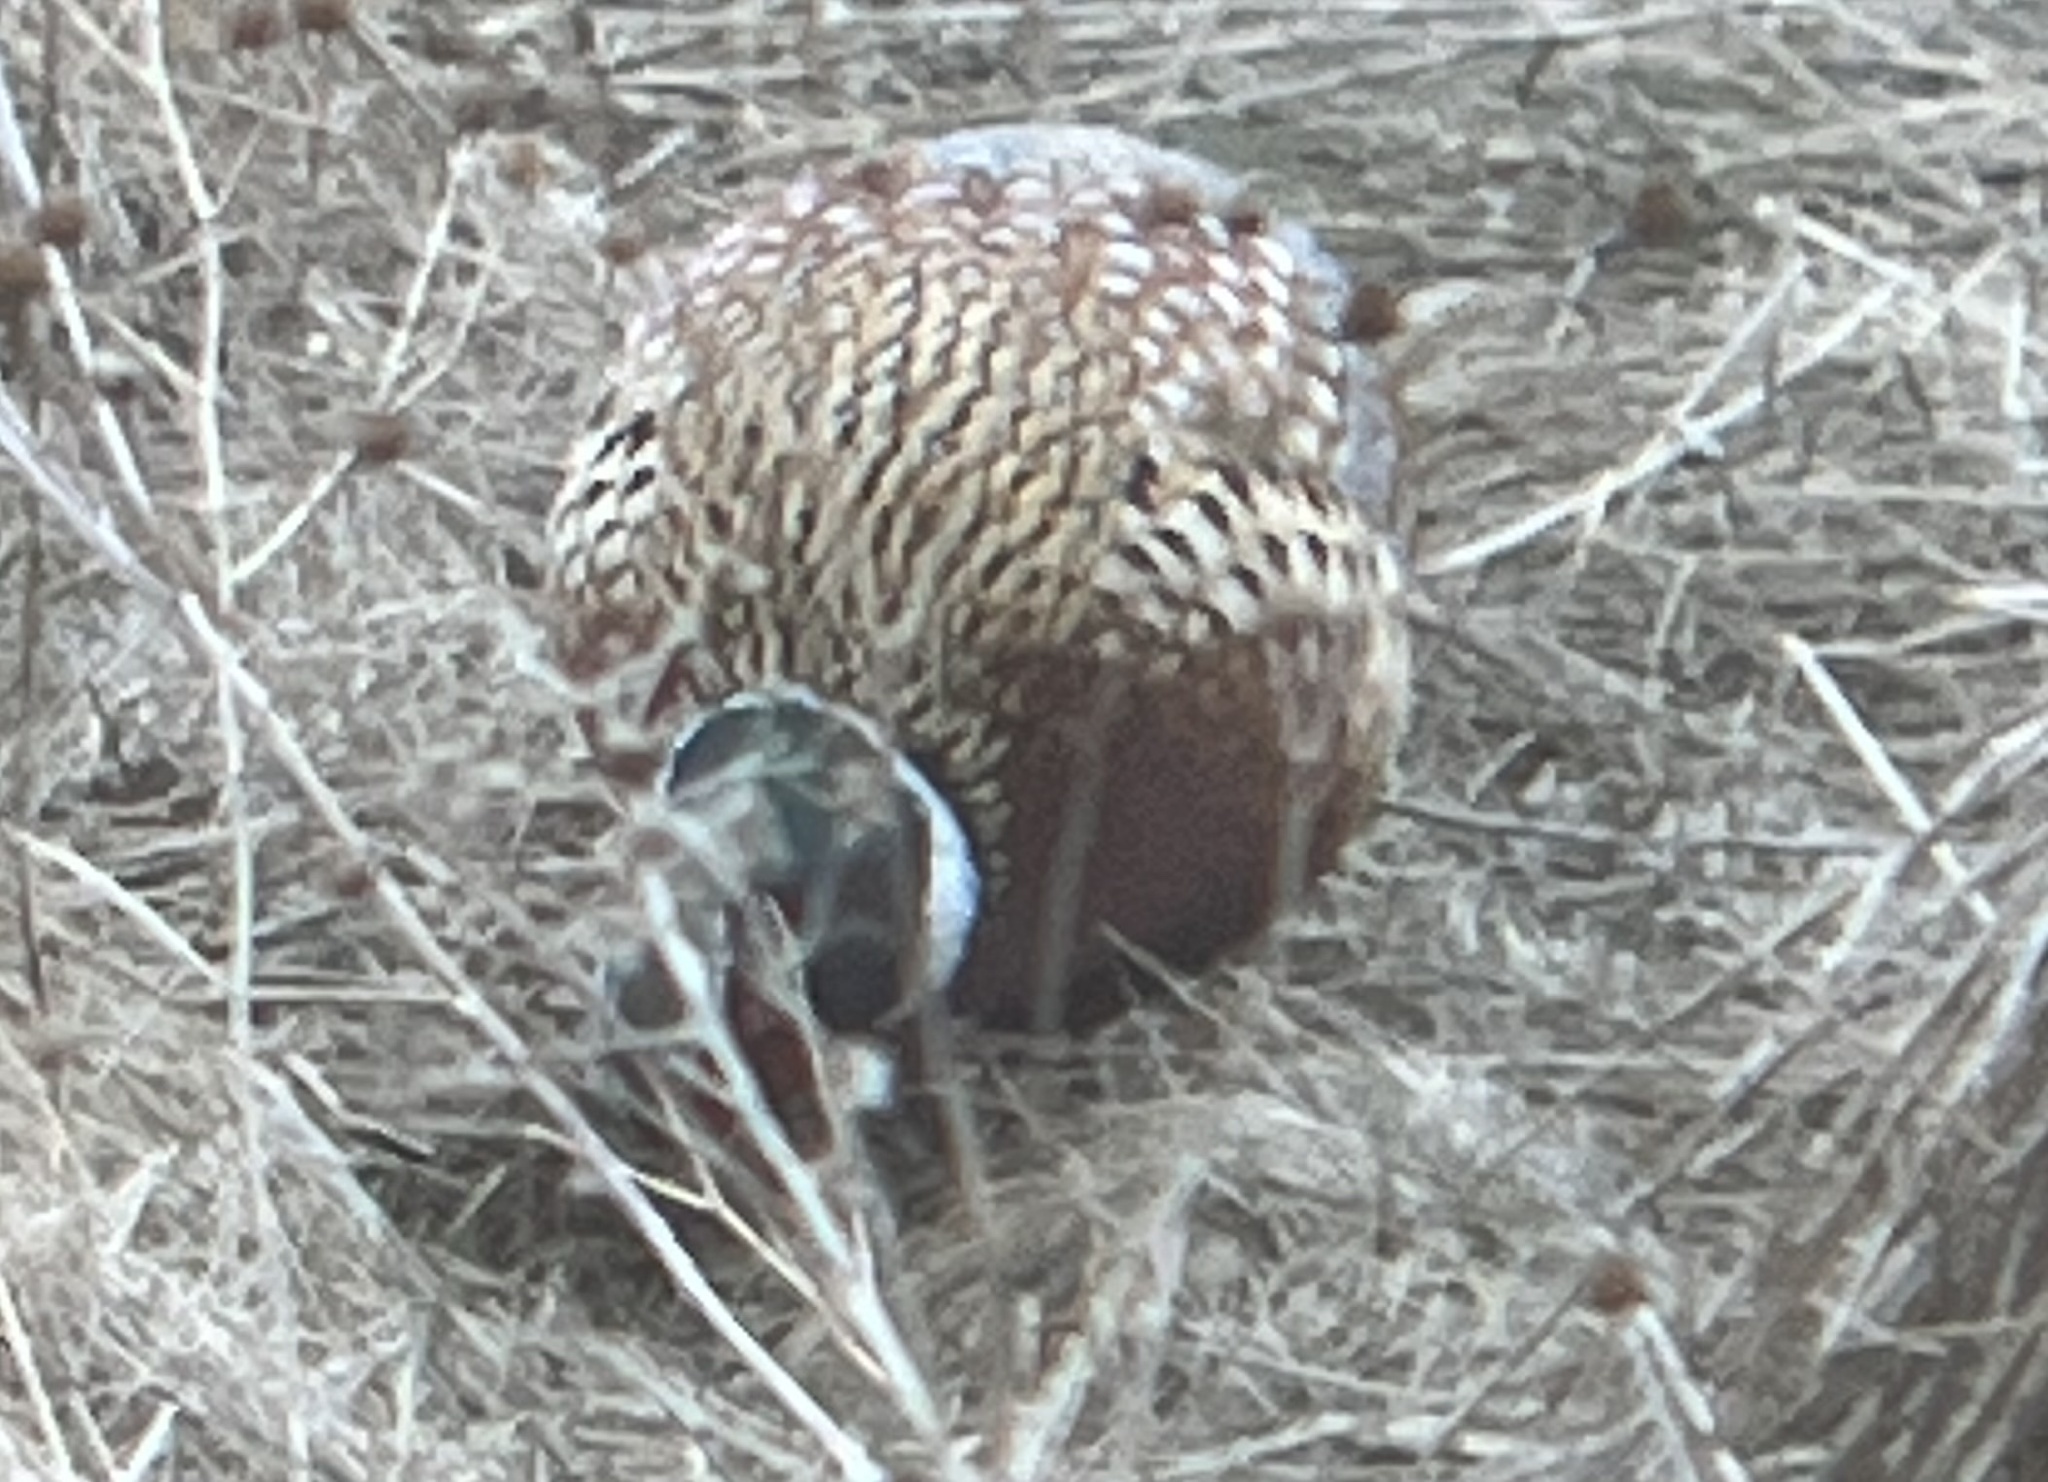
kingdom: Animalia
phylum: Chordata
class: Aves
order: Galliformes
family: Phasianidae
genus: Phasianus
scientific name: Phasianus colchicus
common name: Common pheasant
